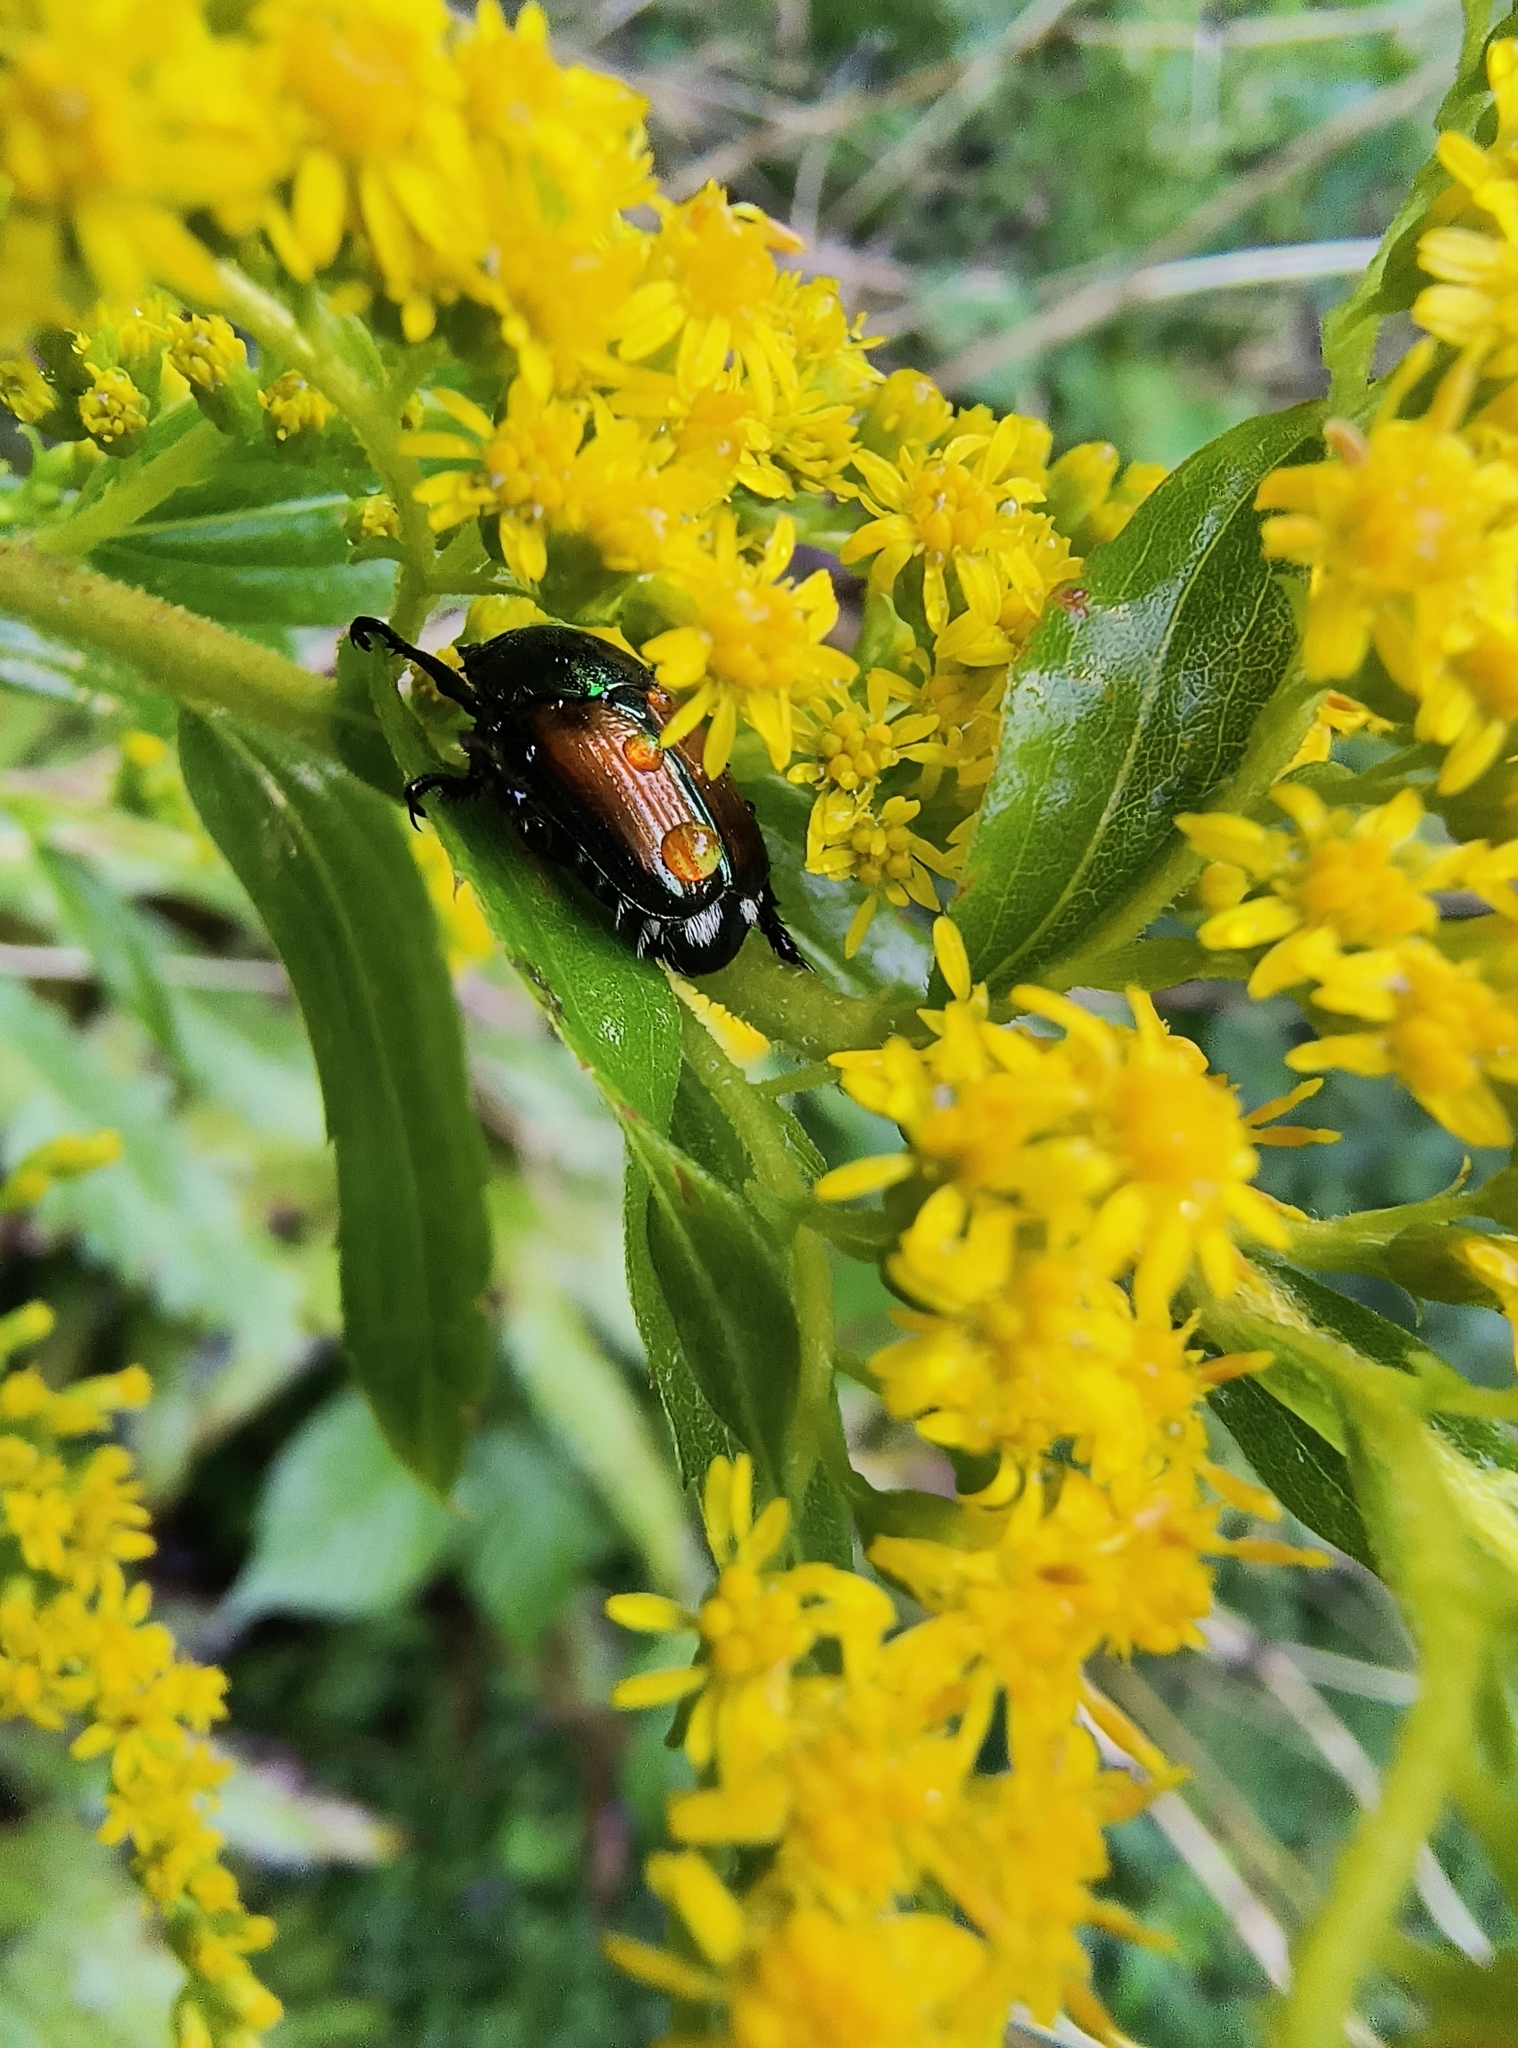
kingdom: Animalia
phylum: Arthropoda
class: Insecta
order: Coleoptera
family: Scarabaeidae
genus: Popillia
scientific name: Popillia japonica
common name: Japanese beetle
